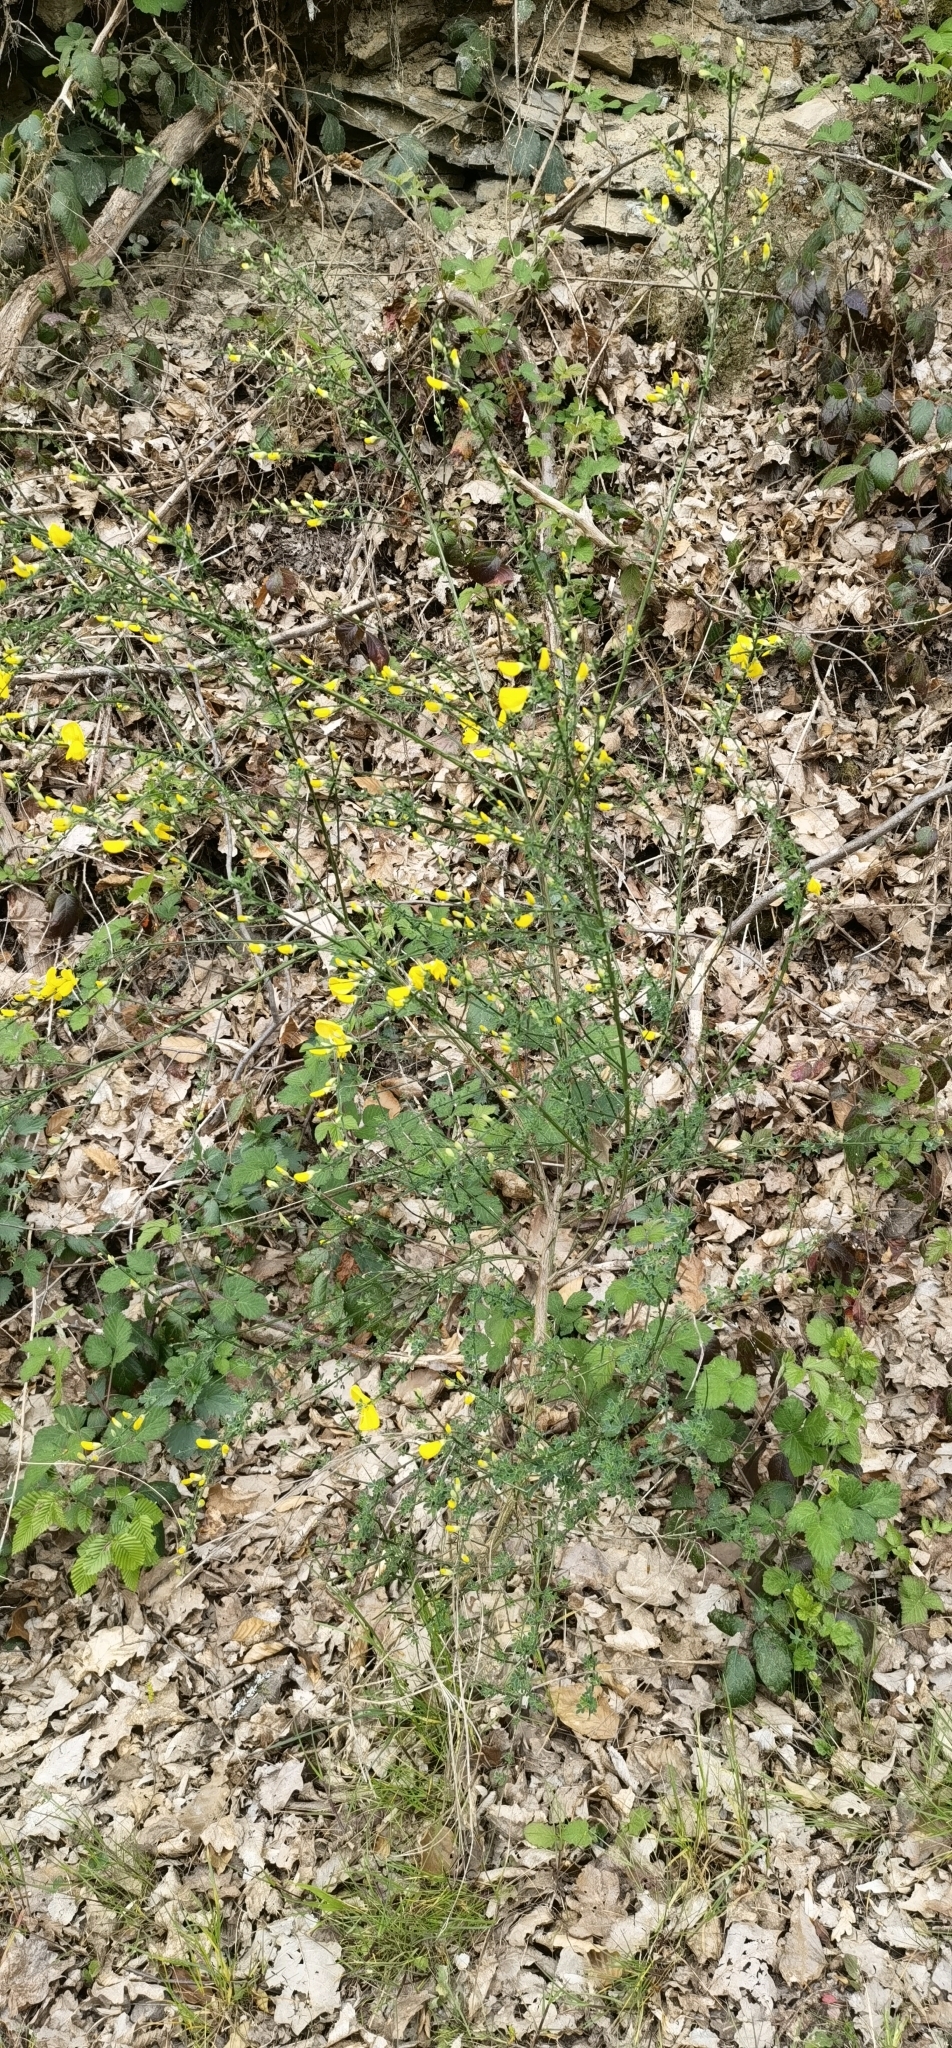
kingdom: Plantae
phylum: Tracheophyta
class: Magnoliopsida
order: Fabales
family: Fabaceae
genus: Cytisus
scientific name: Cytisus scoparius
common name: Scotch broom
